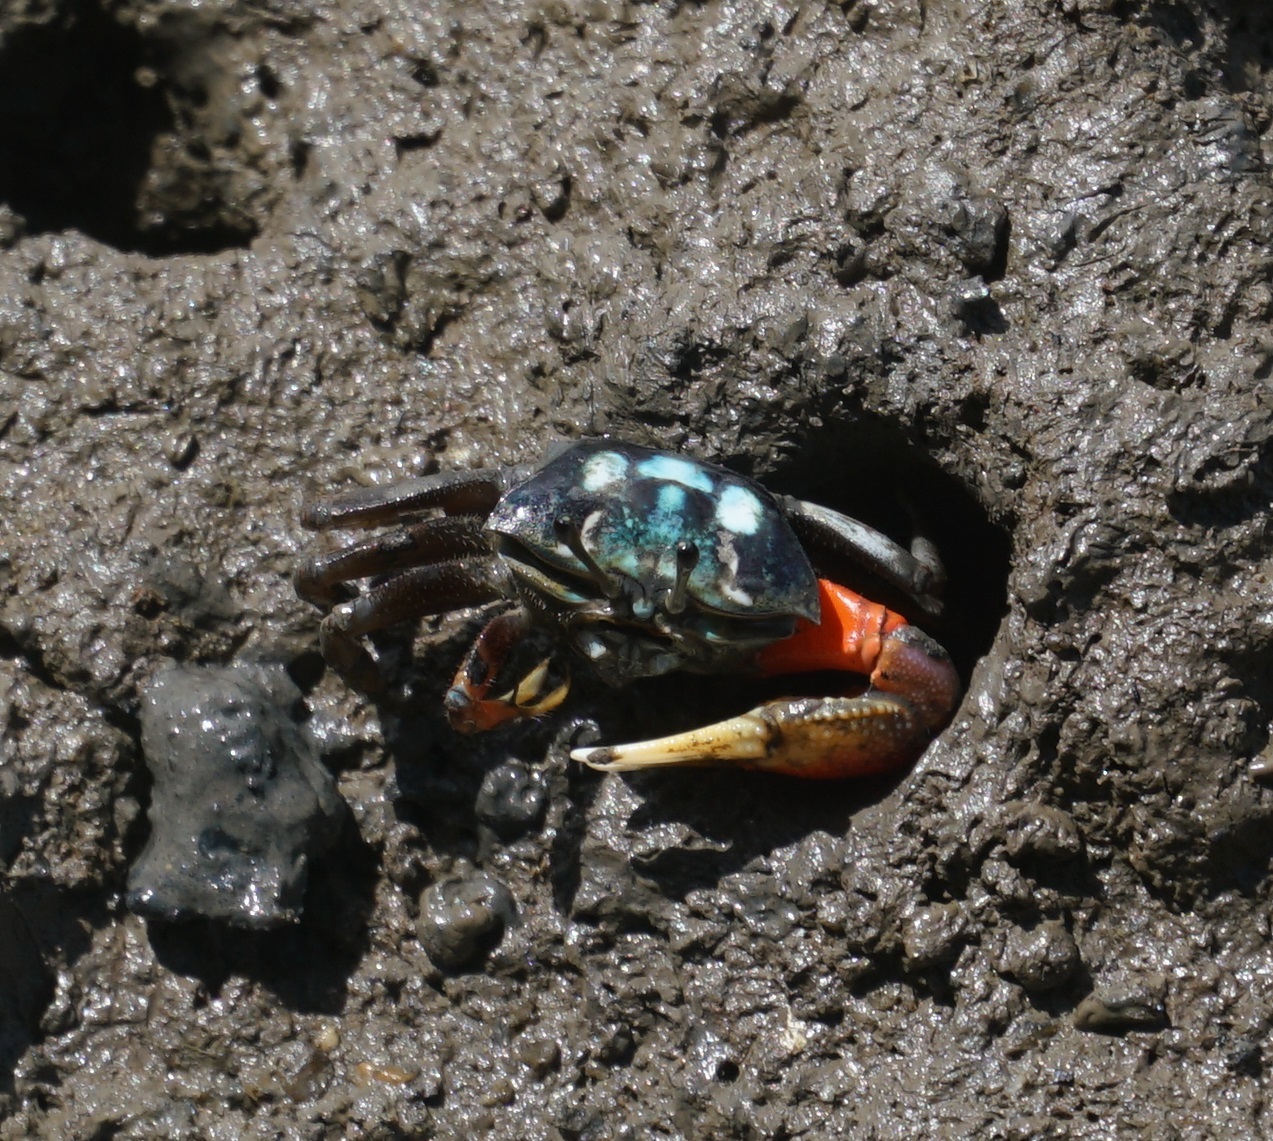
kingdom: Animalia
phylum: Arthropoda
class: Malacostraca
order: Decapoda
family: Ocypodidae
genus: Tubuca
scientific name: Tubuca coarctata
